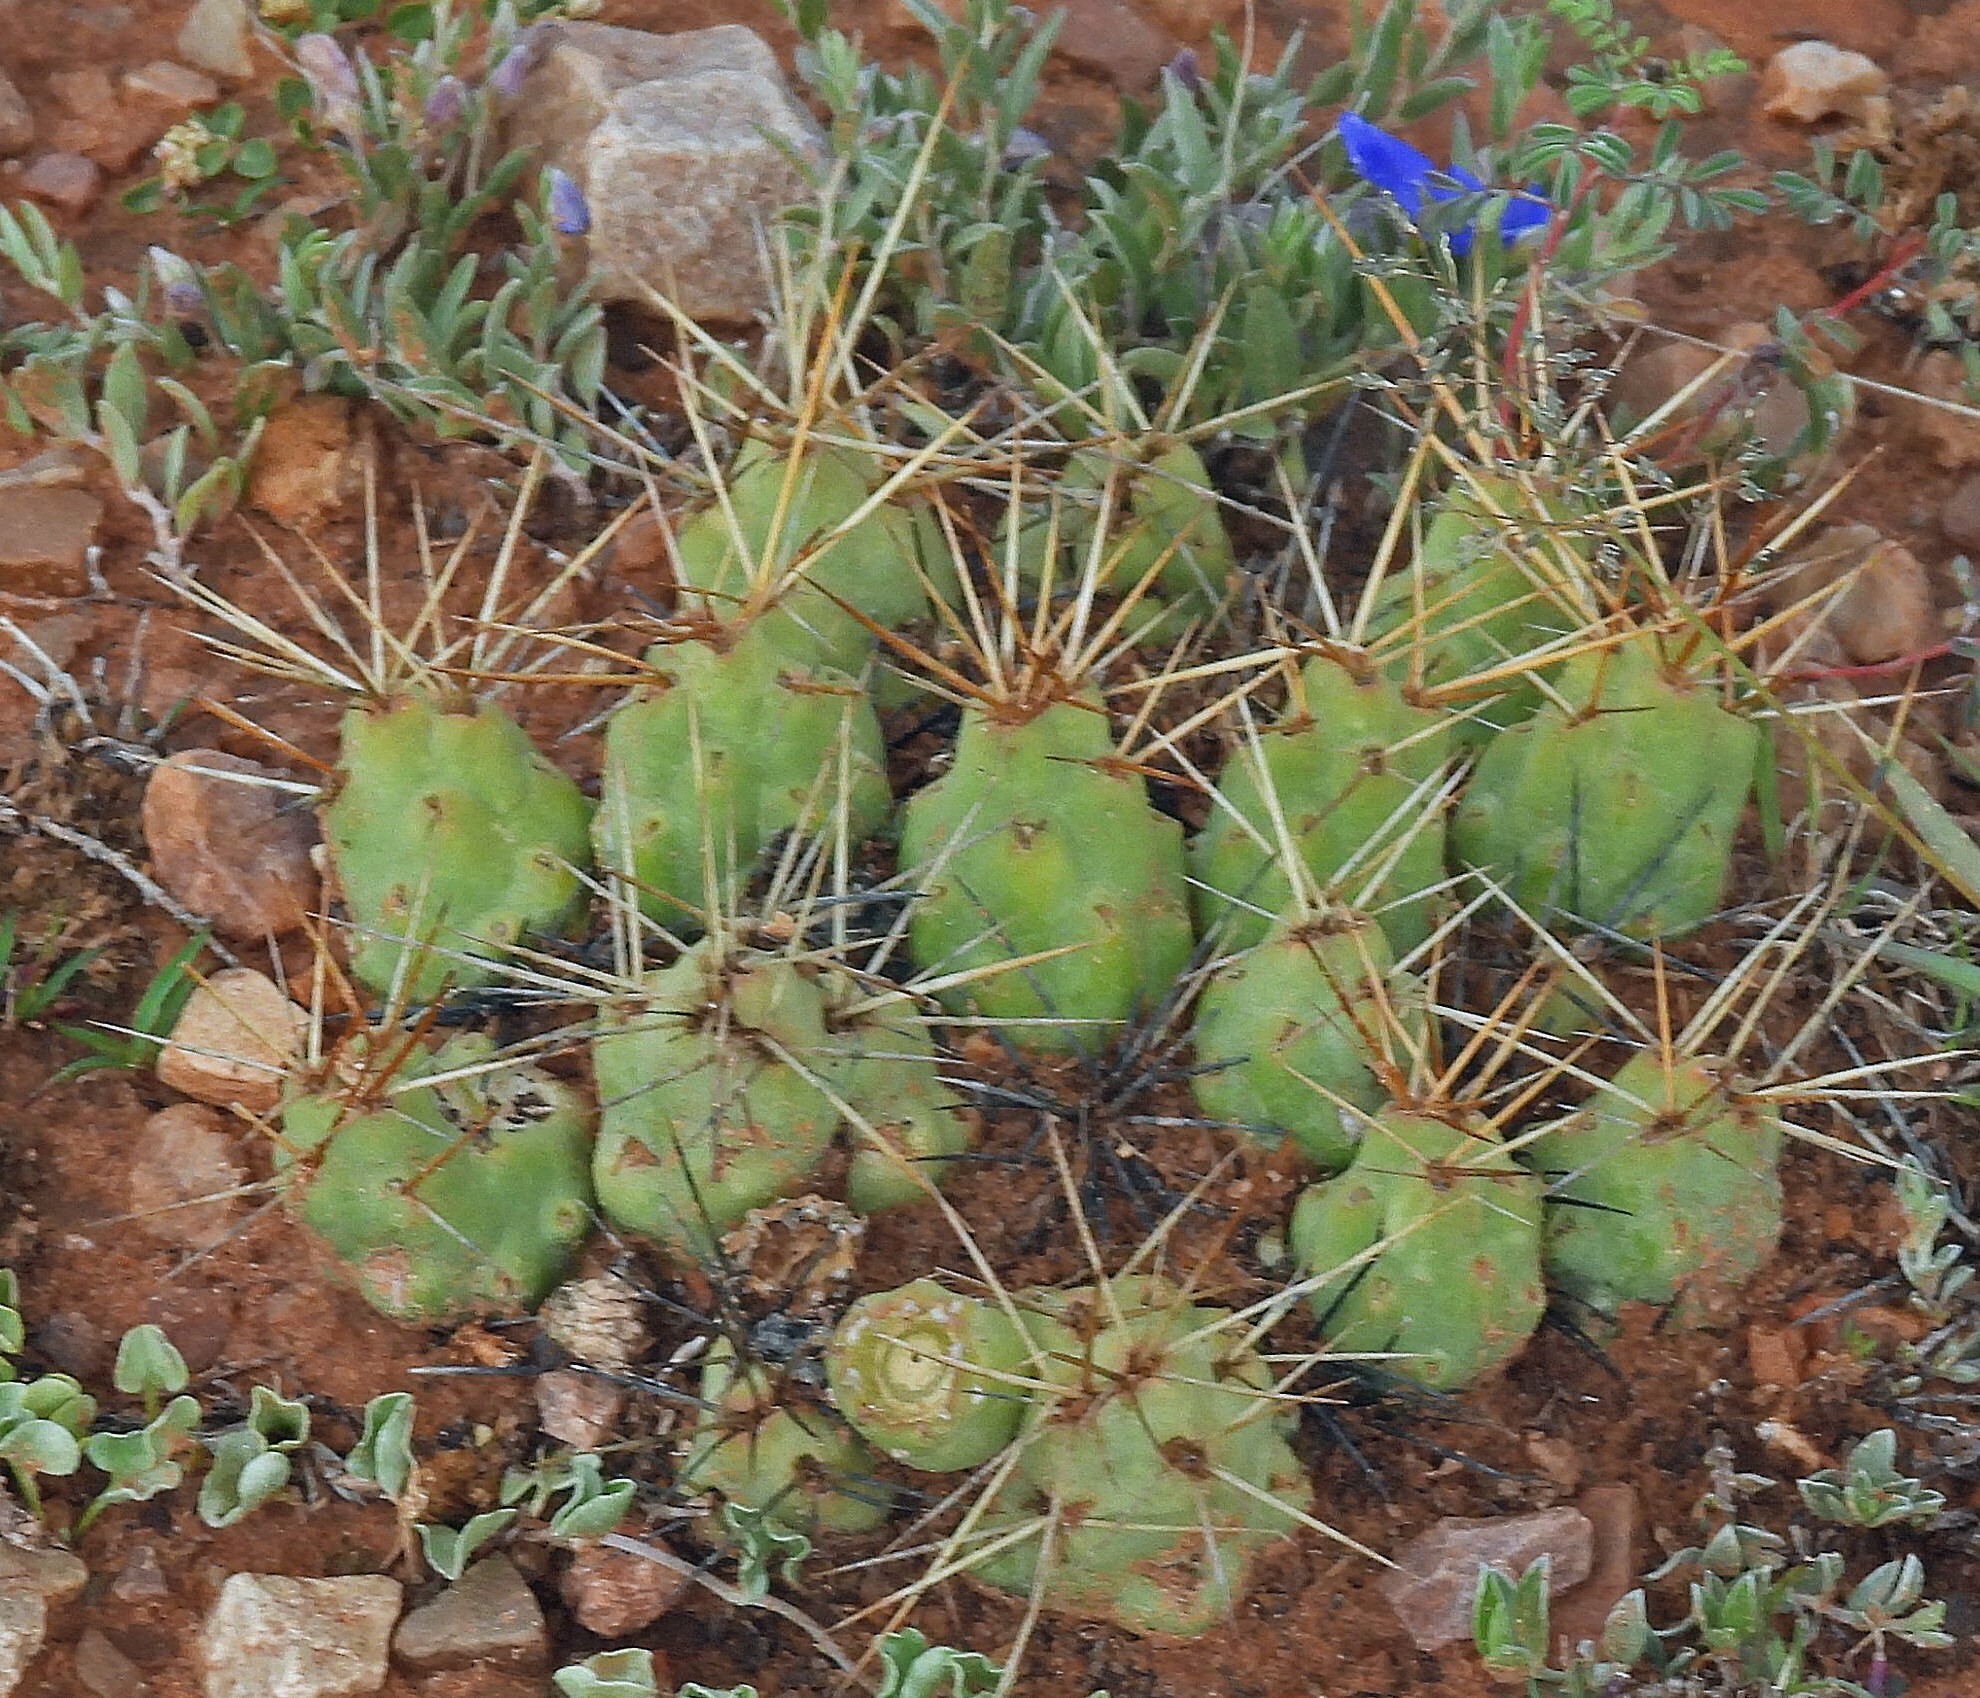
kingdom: Plantae
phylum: Tracheophyta
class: Magnoliopsida
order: Caryophyllales
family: Cactaceae
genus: Cumulopuntia
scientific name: Cumulopuntia boliviana
